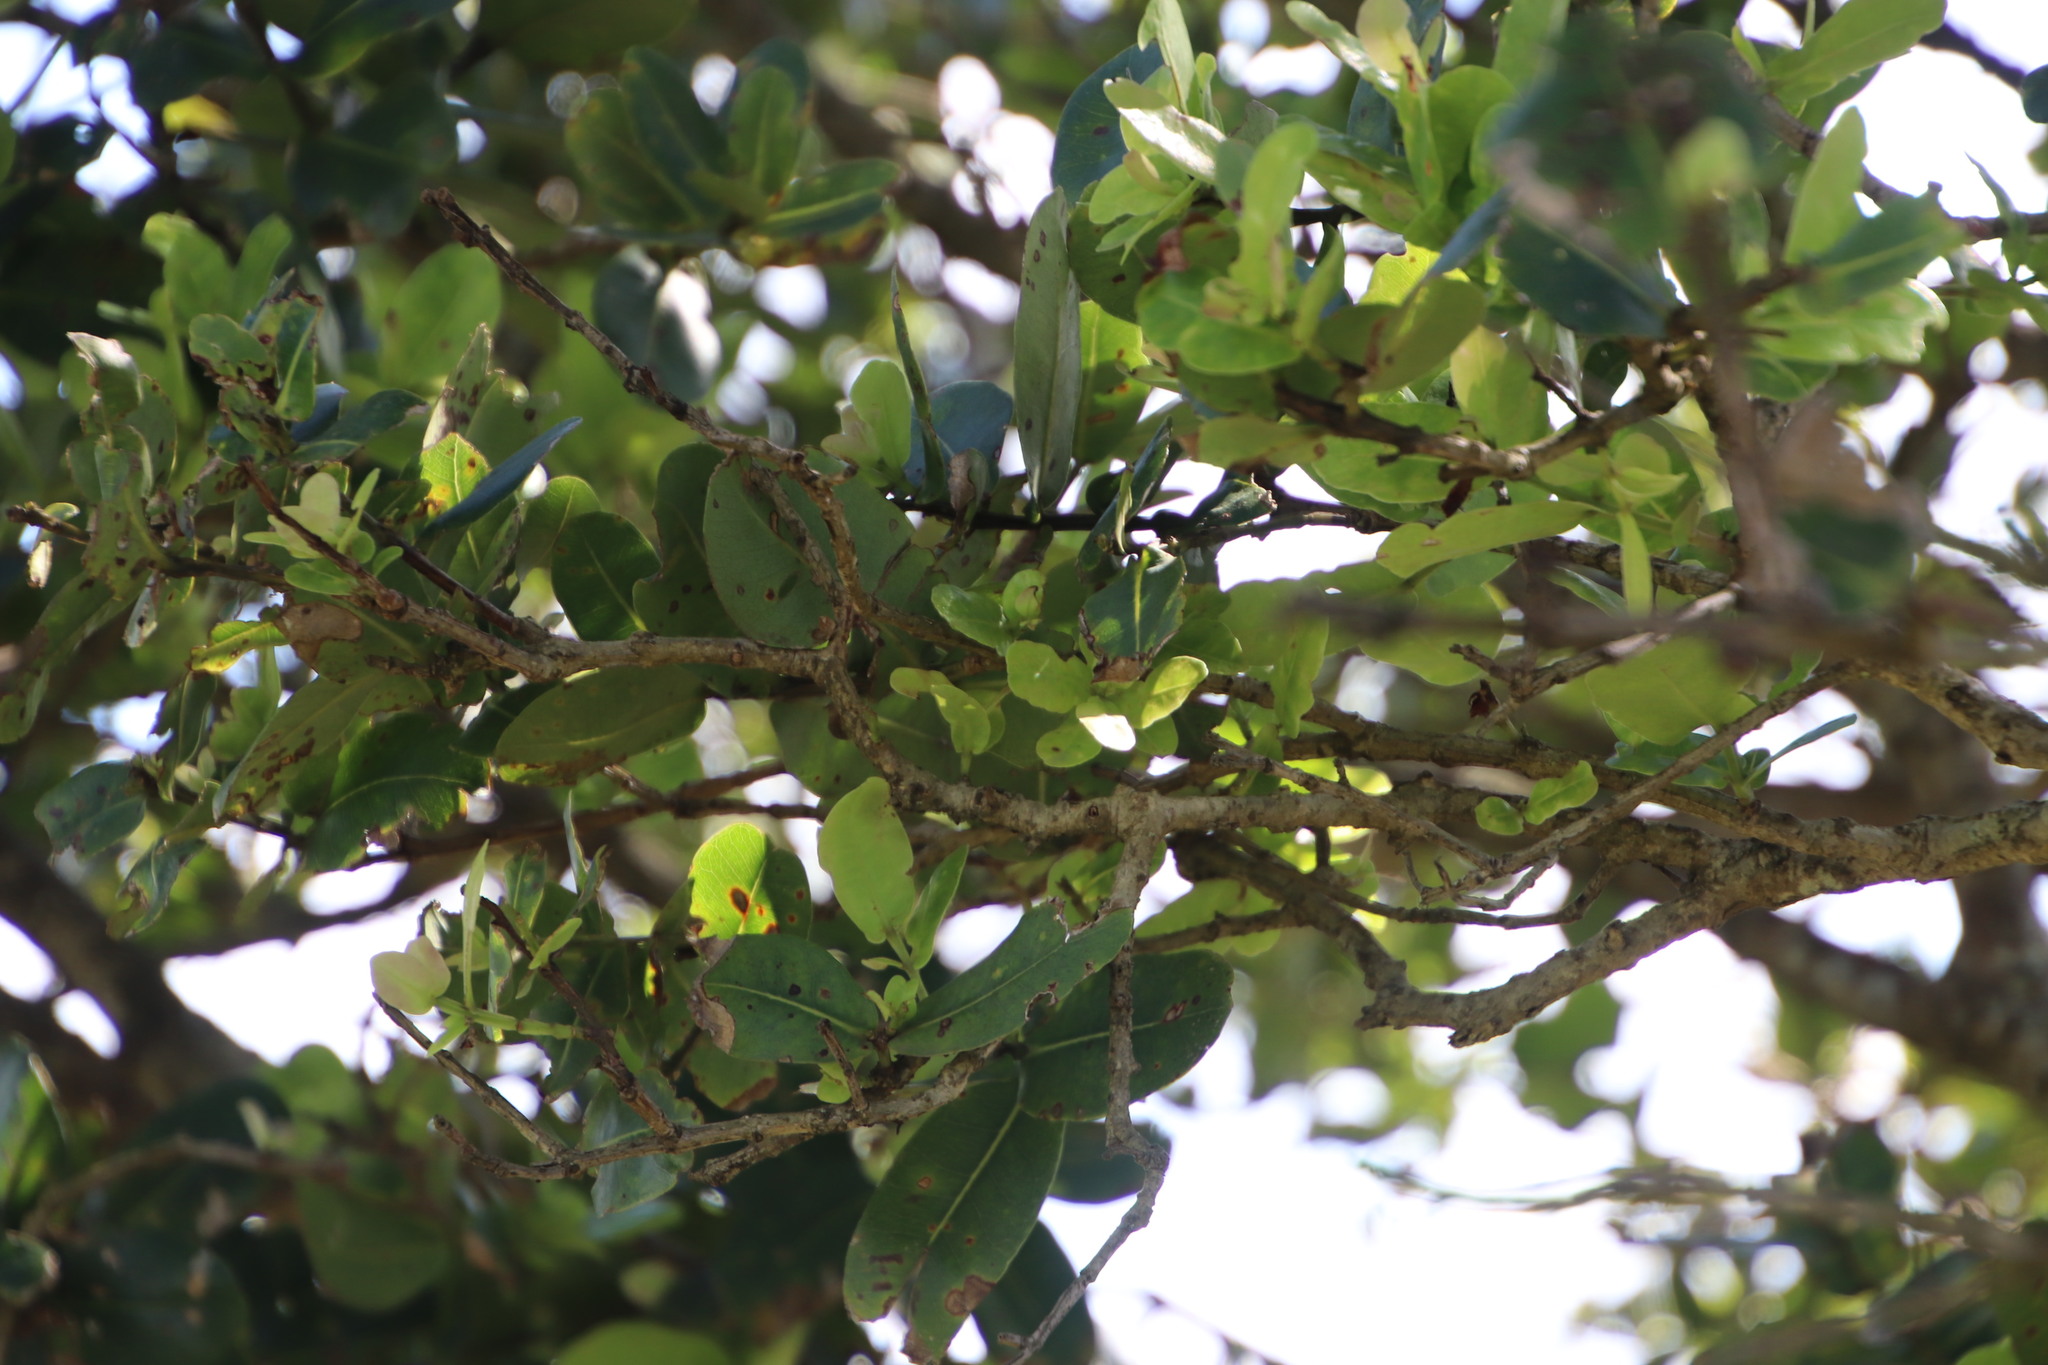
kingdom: Plantae
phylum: Tracheophyta
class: Magnoliopsida
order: Myrtales
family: Myrtaceae
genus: Syzygium
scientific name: Syzygium cordatum
